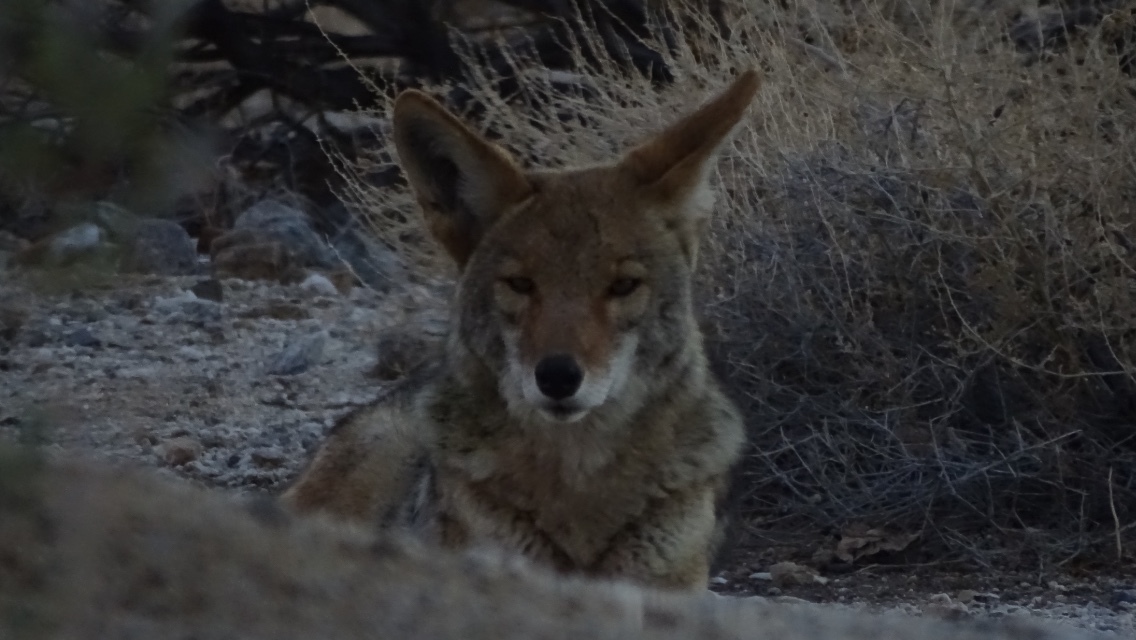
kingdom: Animalia
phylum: Chordata
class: Mammalia
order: Carnivora
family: Canidae
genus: Canis
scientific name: Canis latrans
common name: Coyote
